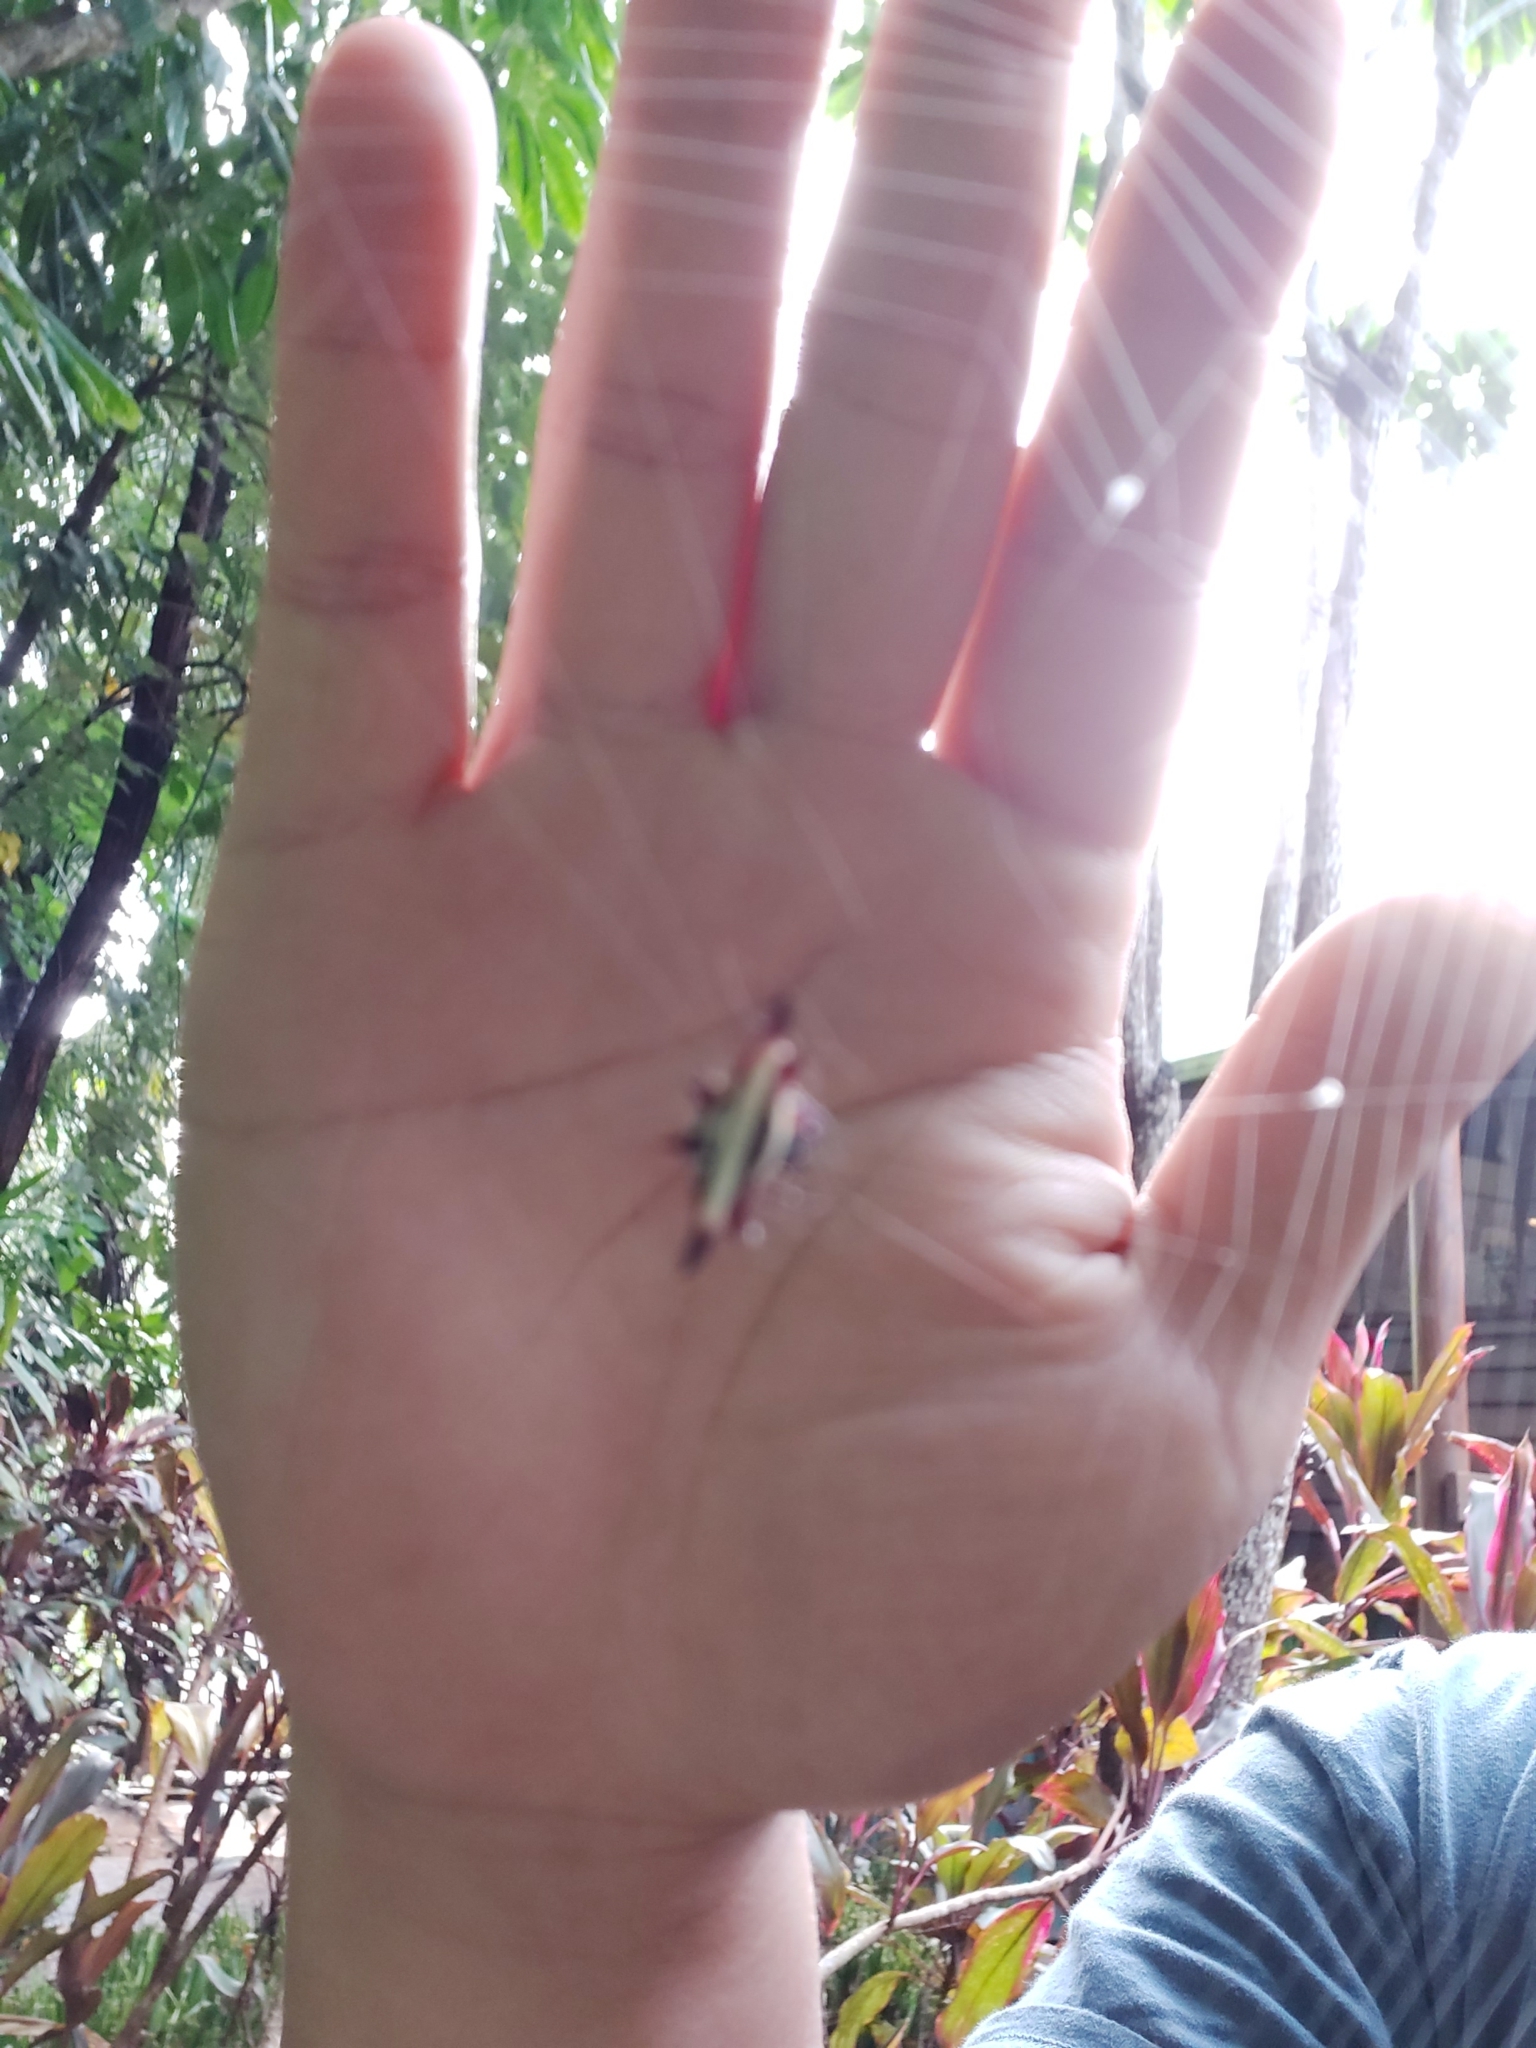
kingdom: Animalia
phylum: Arthropoda
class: Arachnida
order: Araneae
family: Araneidae
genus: Gasteracantha
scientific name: Gasteracantha fornicata
